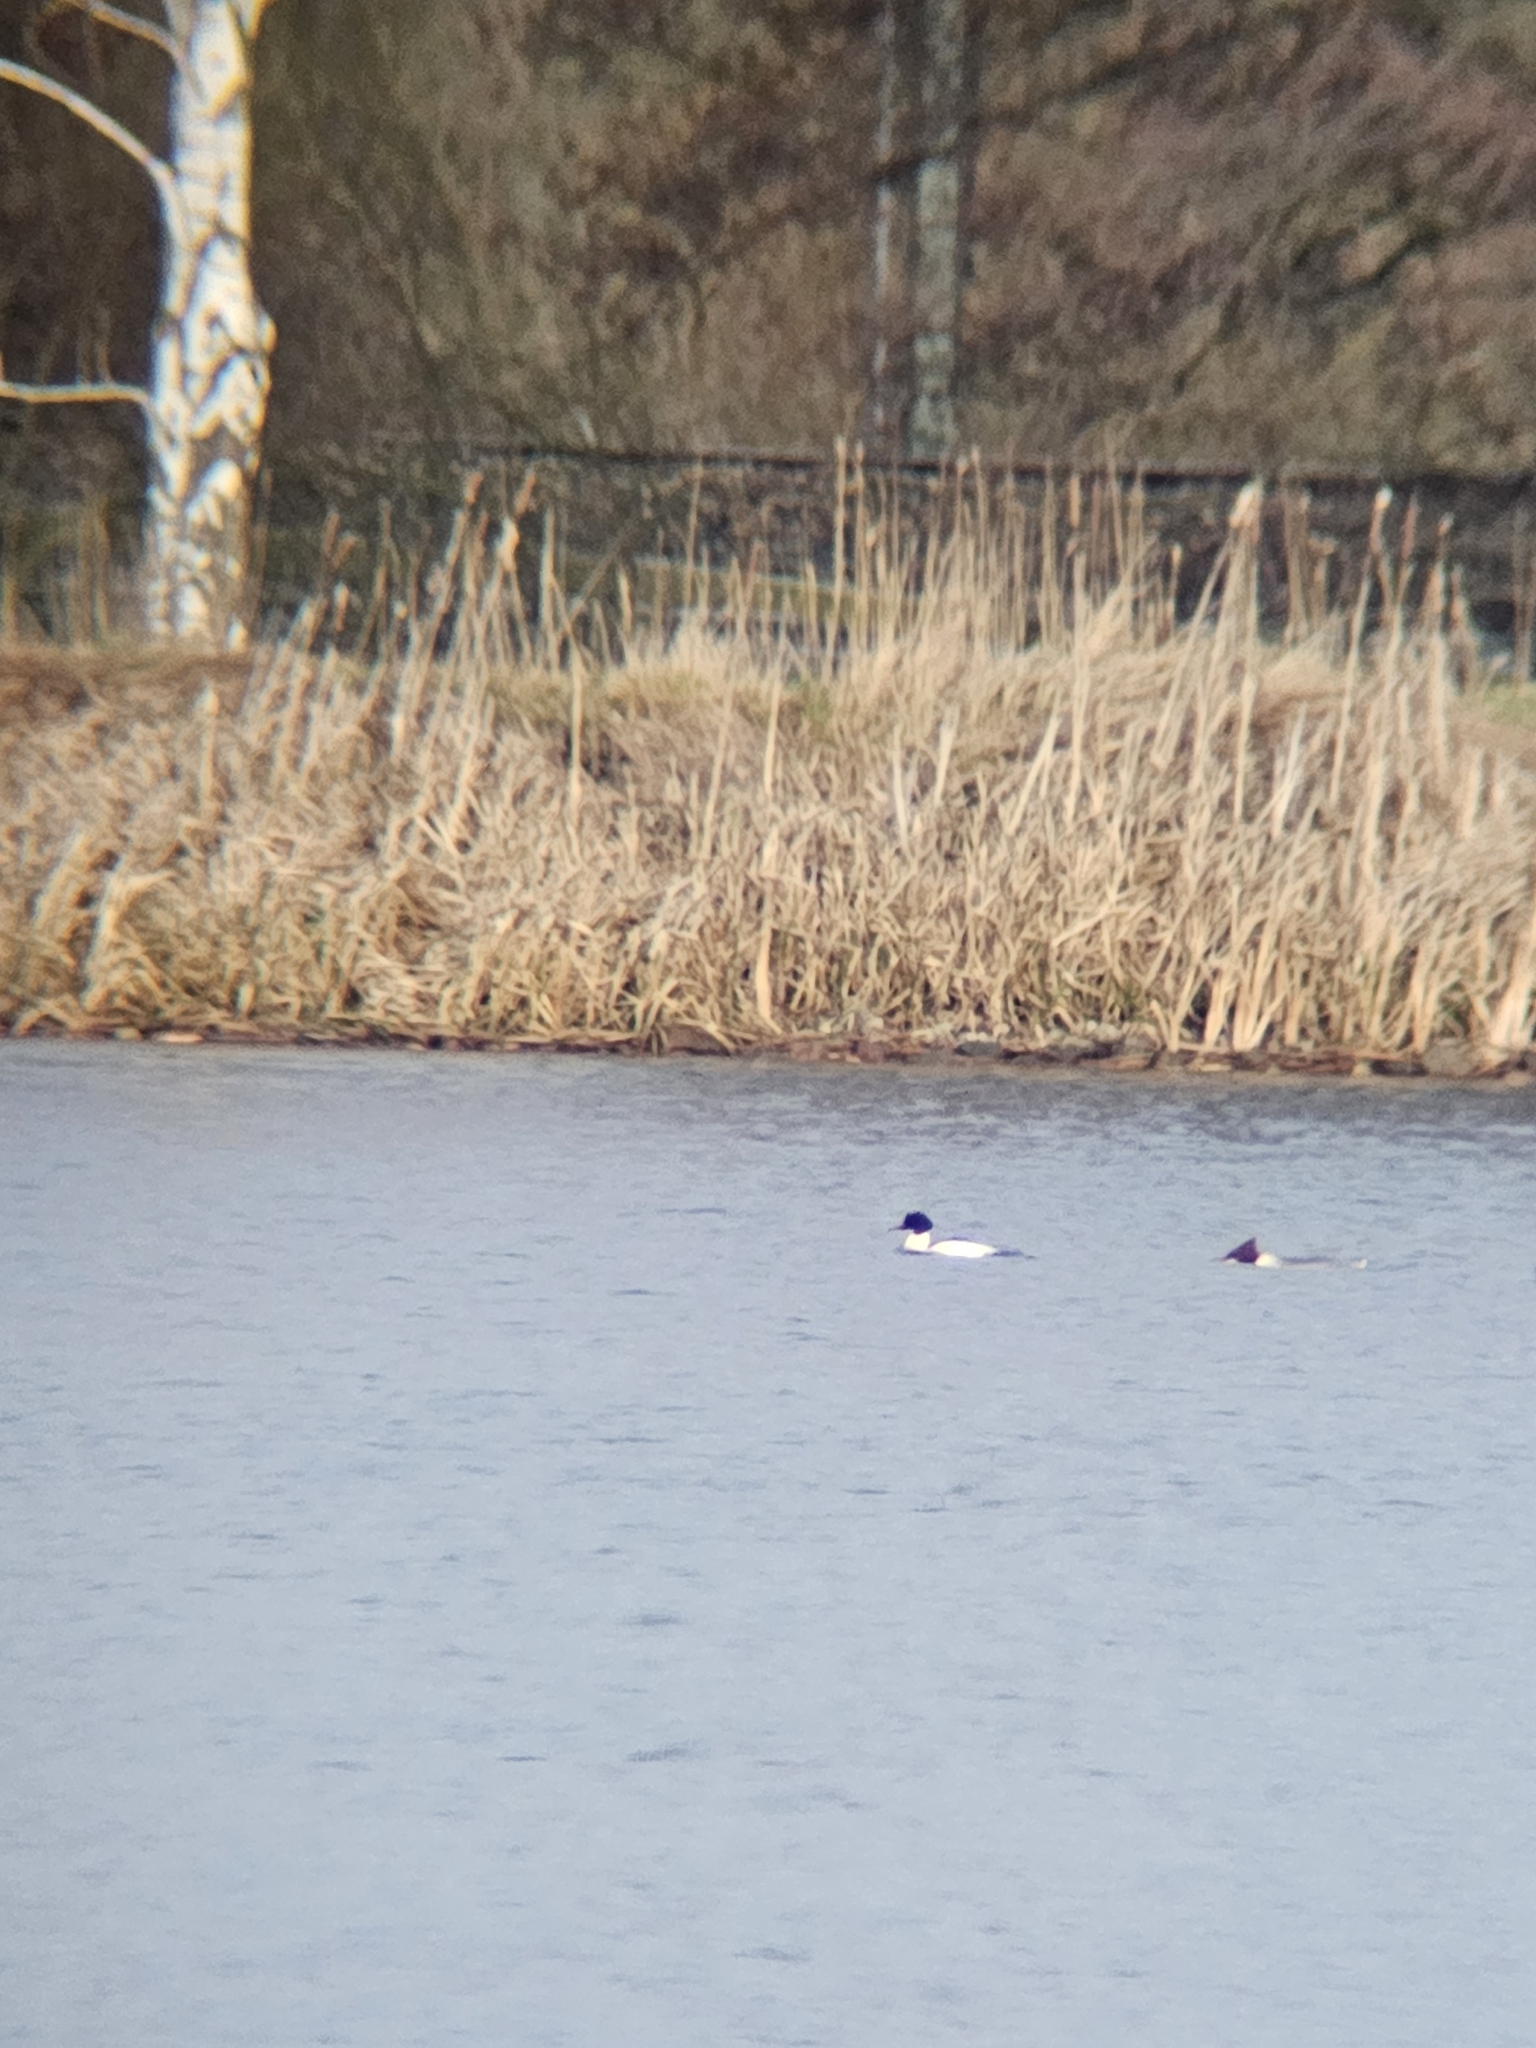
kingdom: Animalia
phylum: Chordata
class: Aves
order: Anseriformes
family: Anatidae
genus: Mergus
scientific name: Mergus merganser
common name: Common merganser
